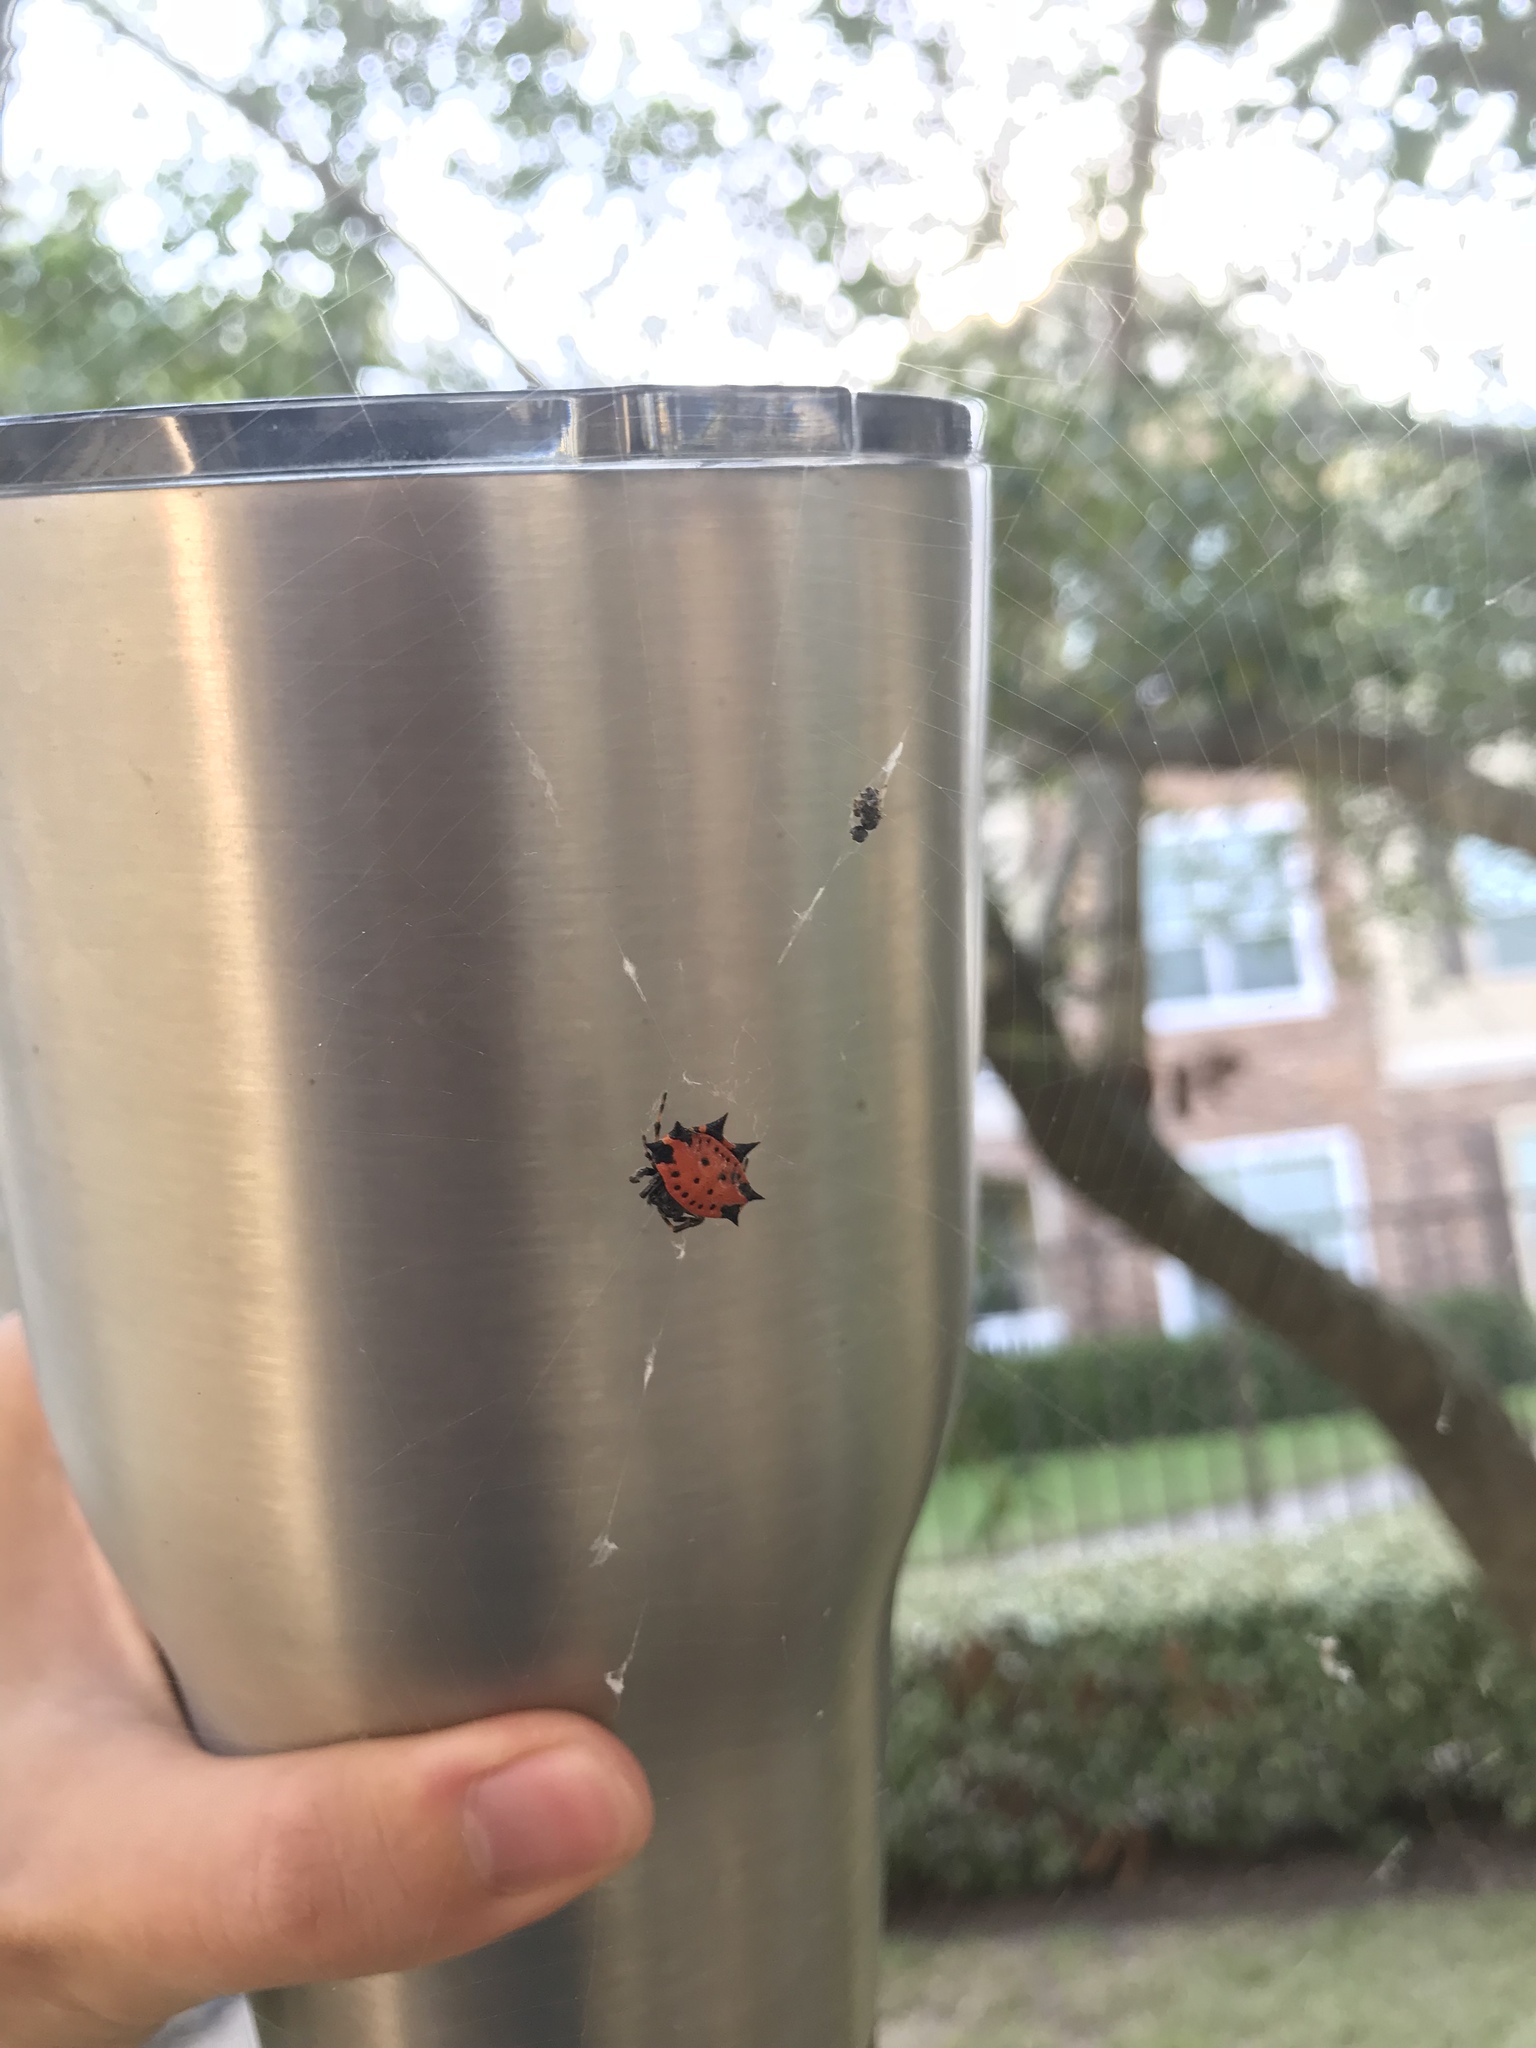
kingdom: Animalia
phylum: Arthropoda
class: Arachnida
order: Araneae
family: Araneidae
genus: Gasteracantha
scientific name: Gasteracantha cancriformis
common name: Orb weavers
